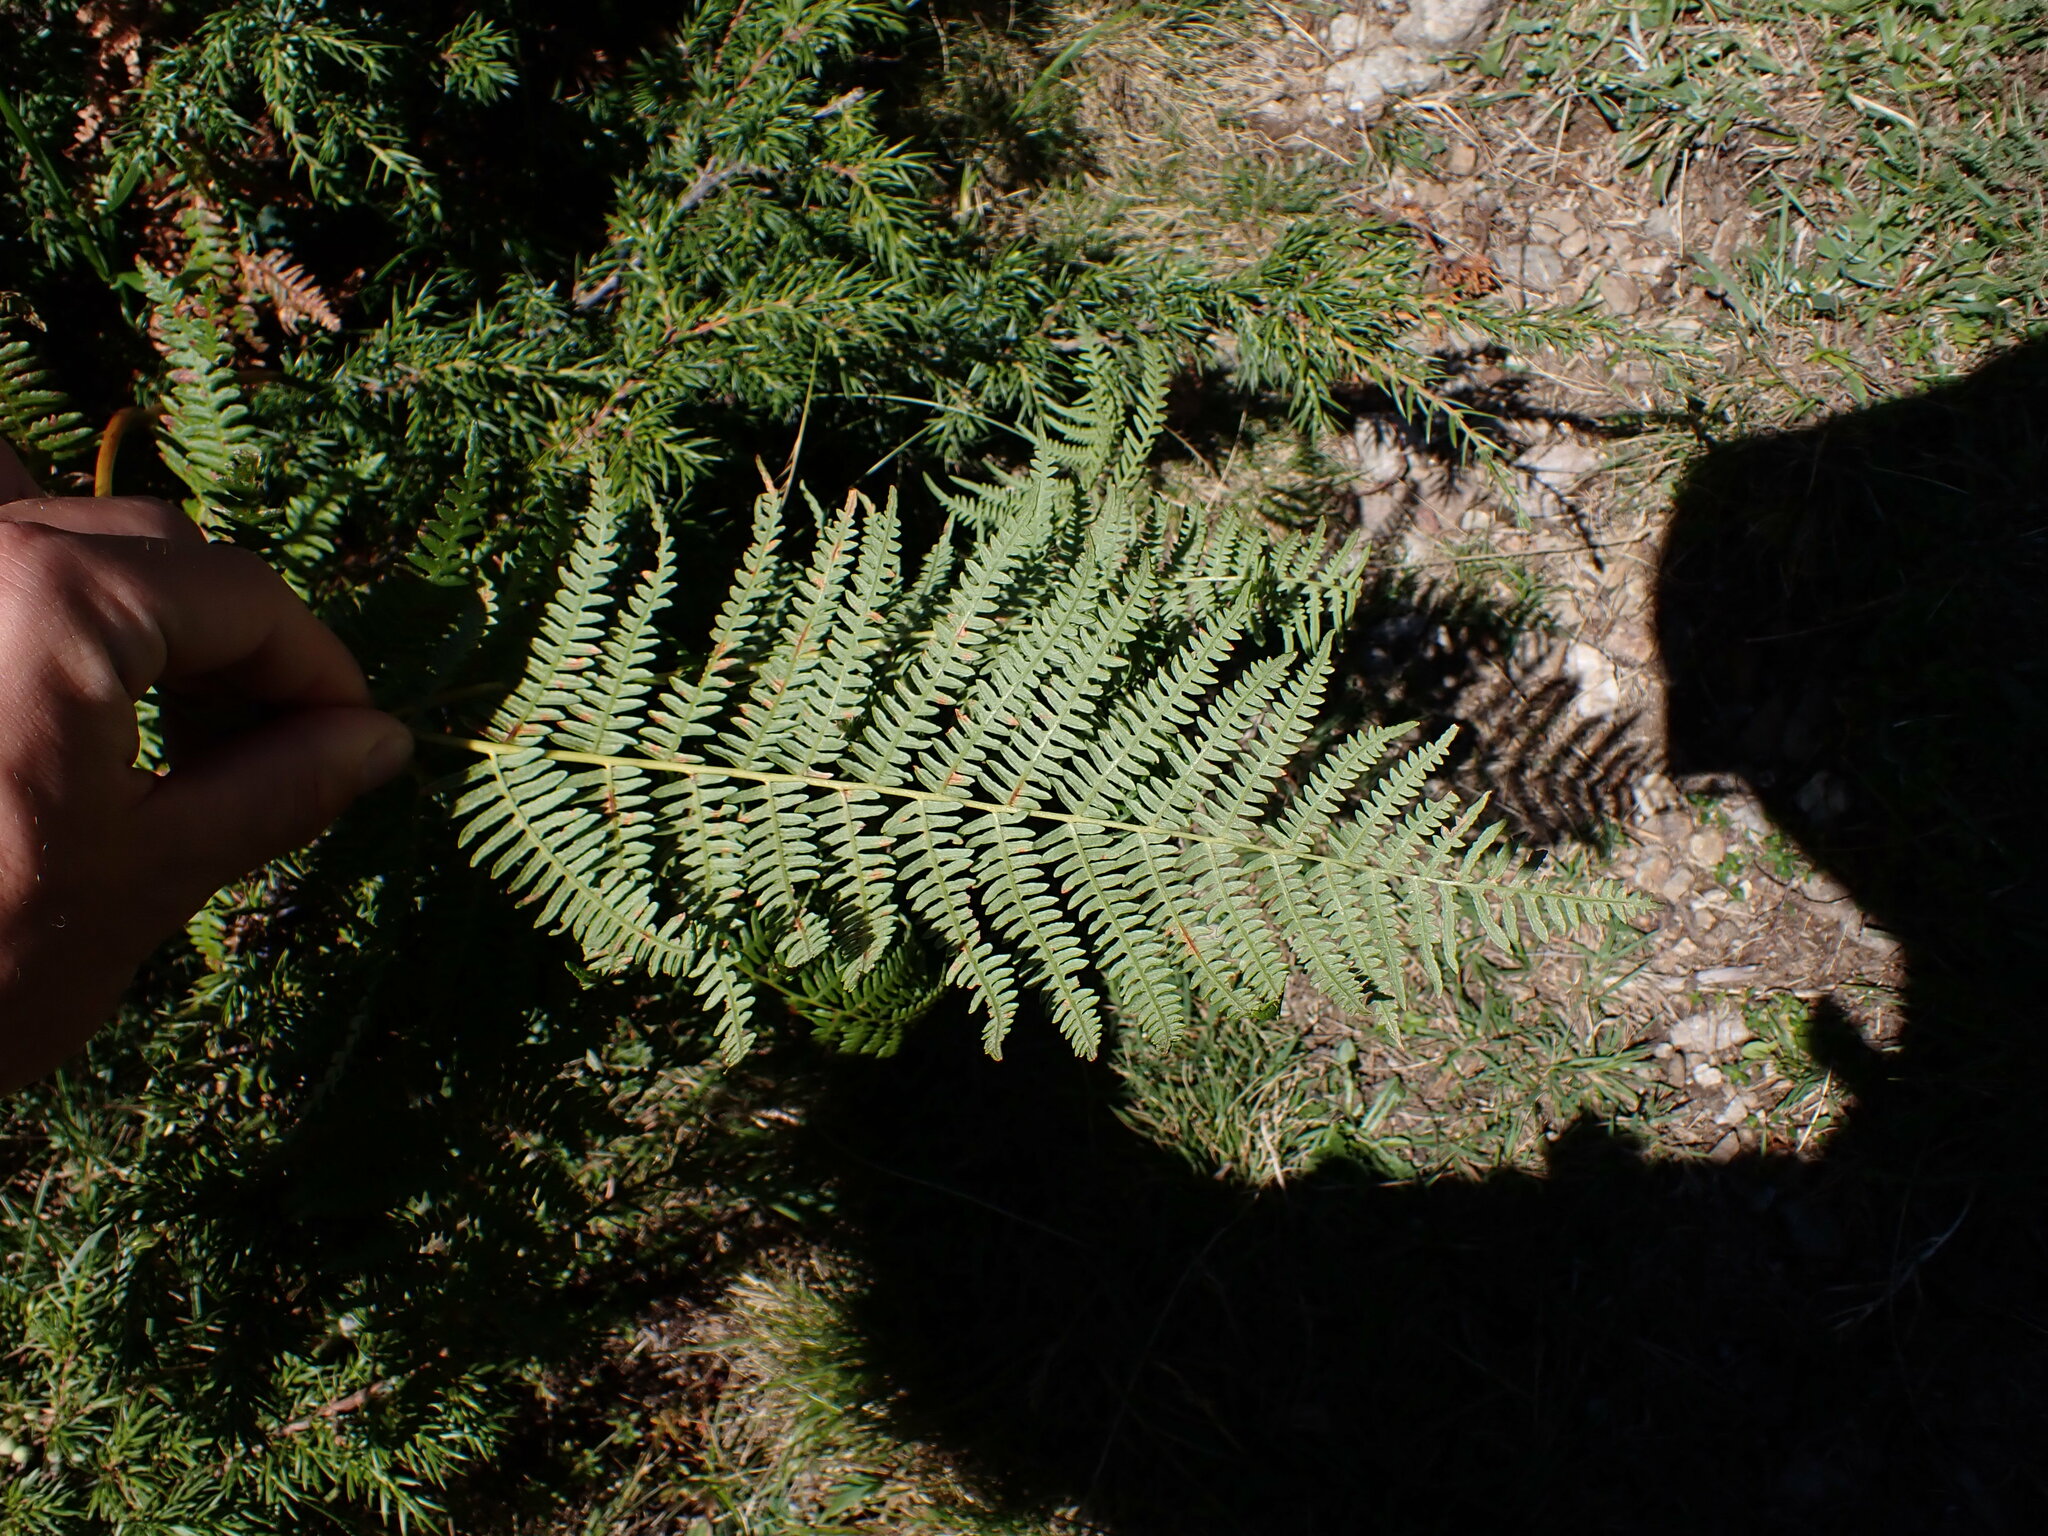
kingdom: Plantae
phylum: Tracheophyta
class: Polypodiopsida
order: Polypodiales
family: Dennstaedtiaceae
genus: Pteridium
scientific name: Pteridium aquilinum
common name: Bracken
